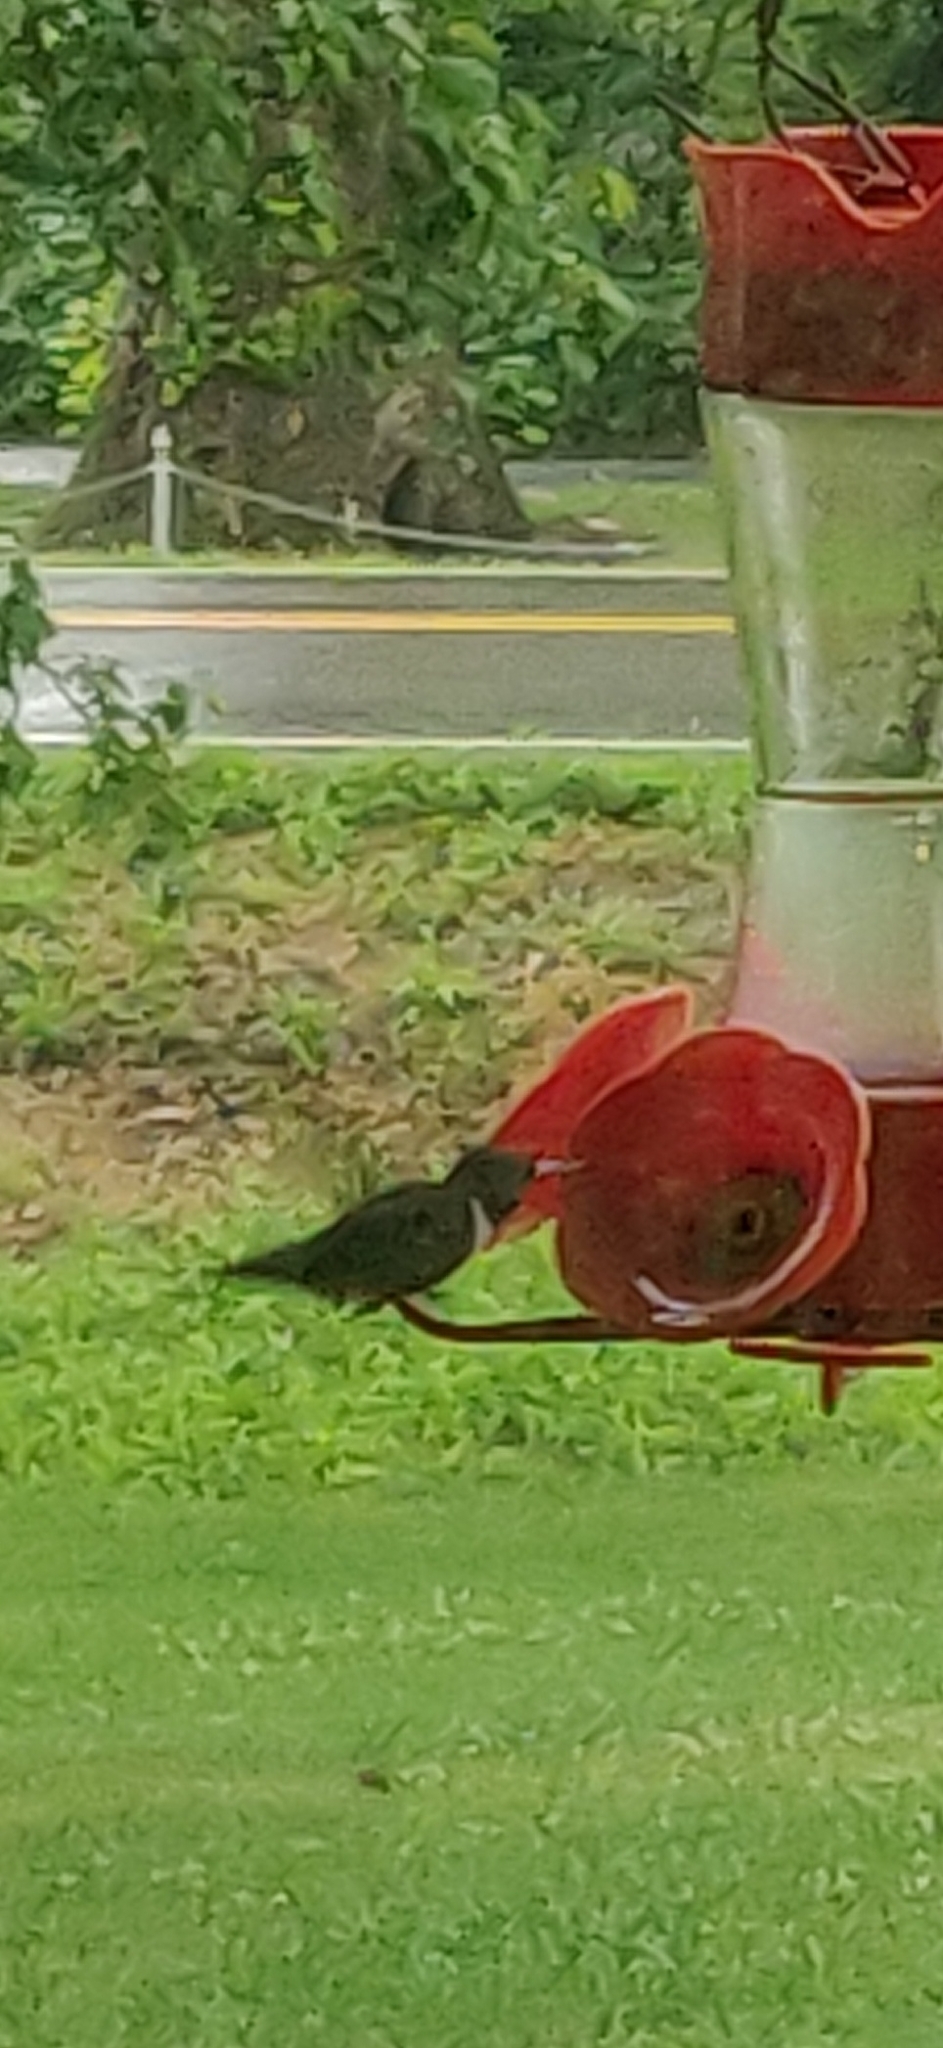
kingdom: Animalia
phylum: Chordata
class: Aves
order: Apodiformes
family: Trochilidae
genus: Archilochus
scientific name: Archilochus colubris
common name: Ruby-throated hummingbird
